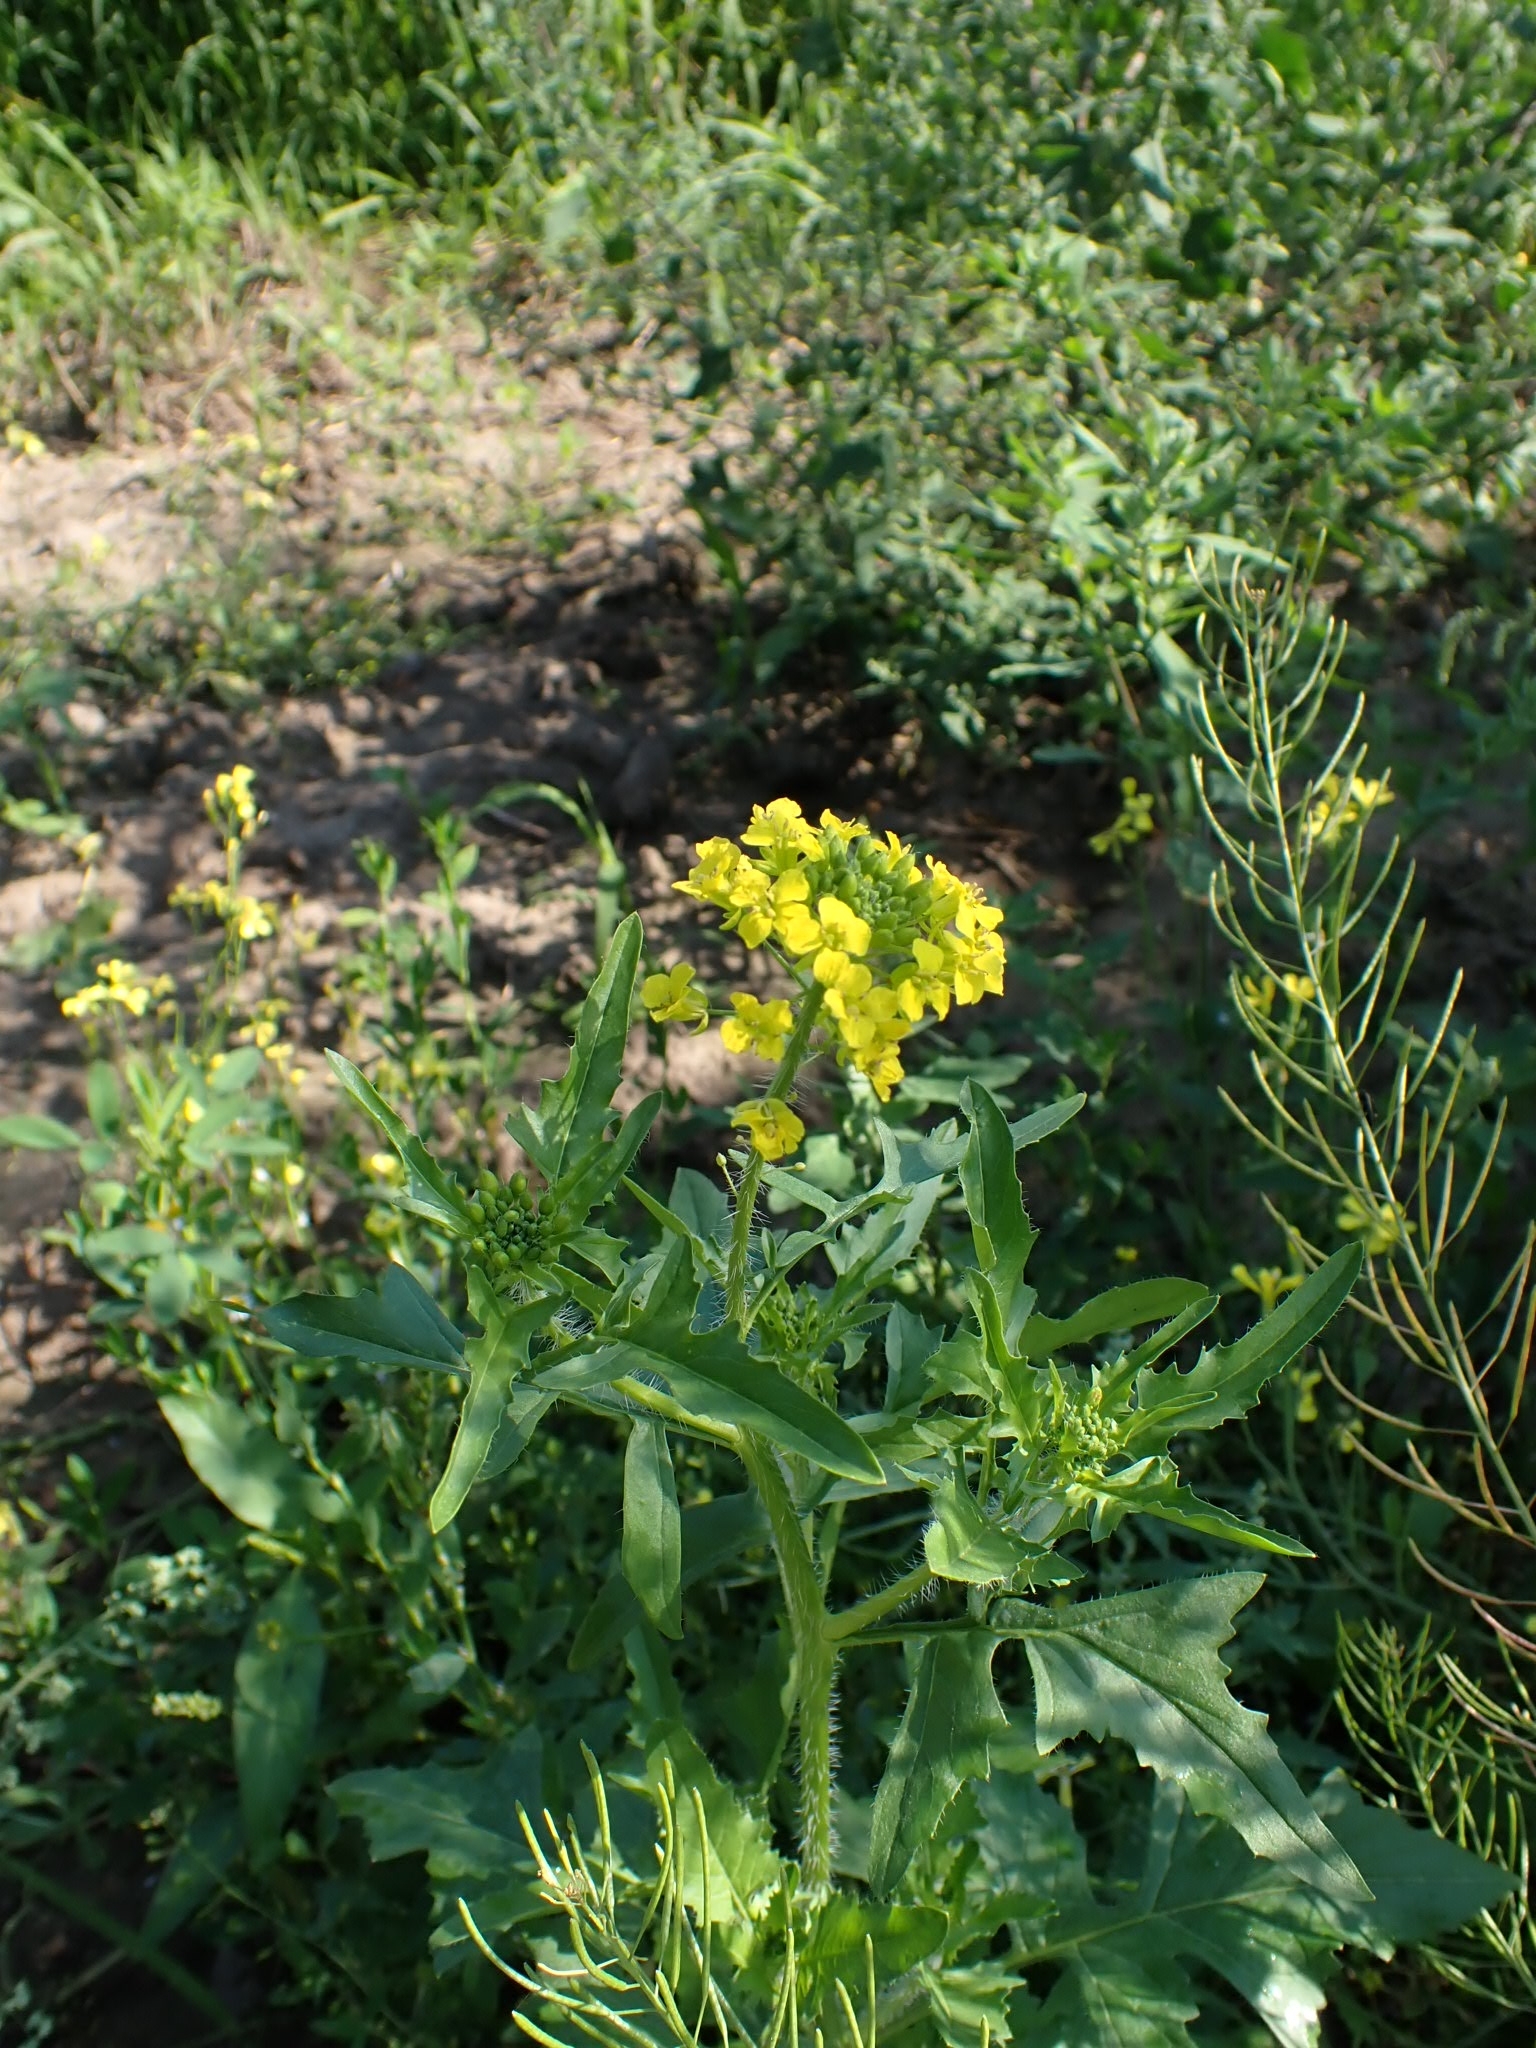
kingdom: Plantae
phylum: Tracheophyta
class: Magnoliopsida
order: Brassicales
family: Brassicaceae
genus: Sisymbrium
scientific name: Sisymbrium loeselii
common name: False london-rocket
